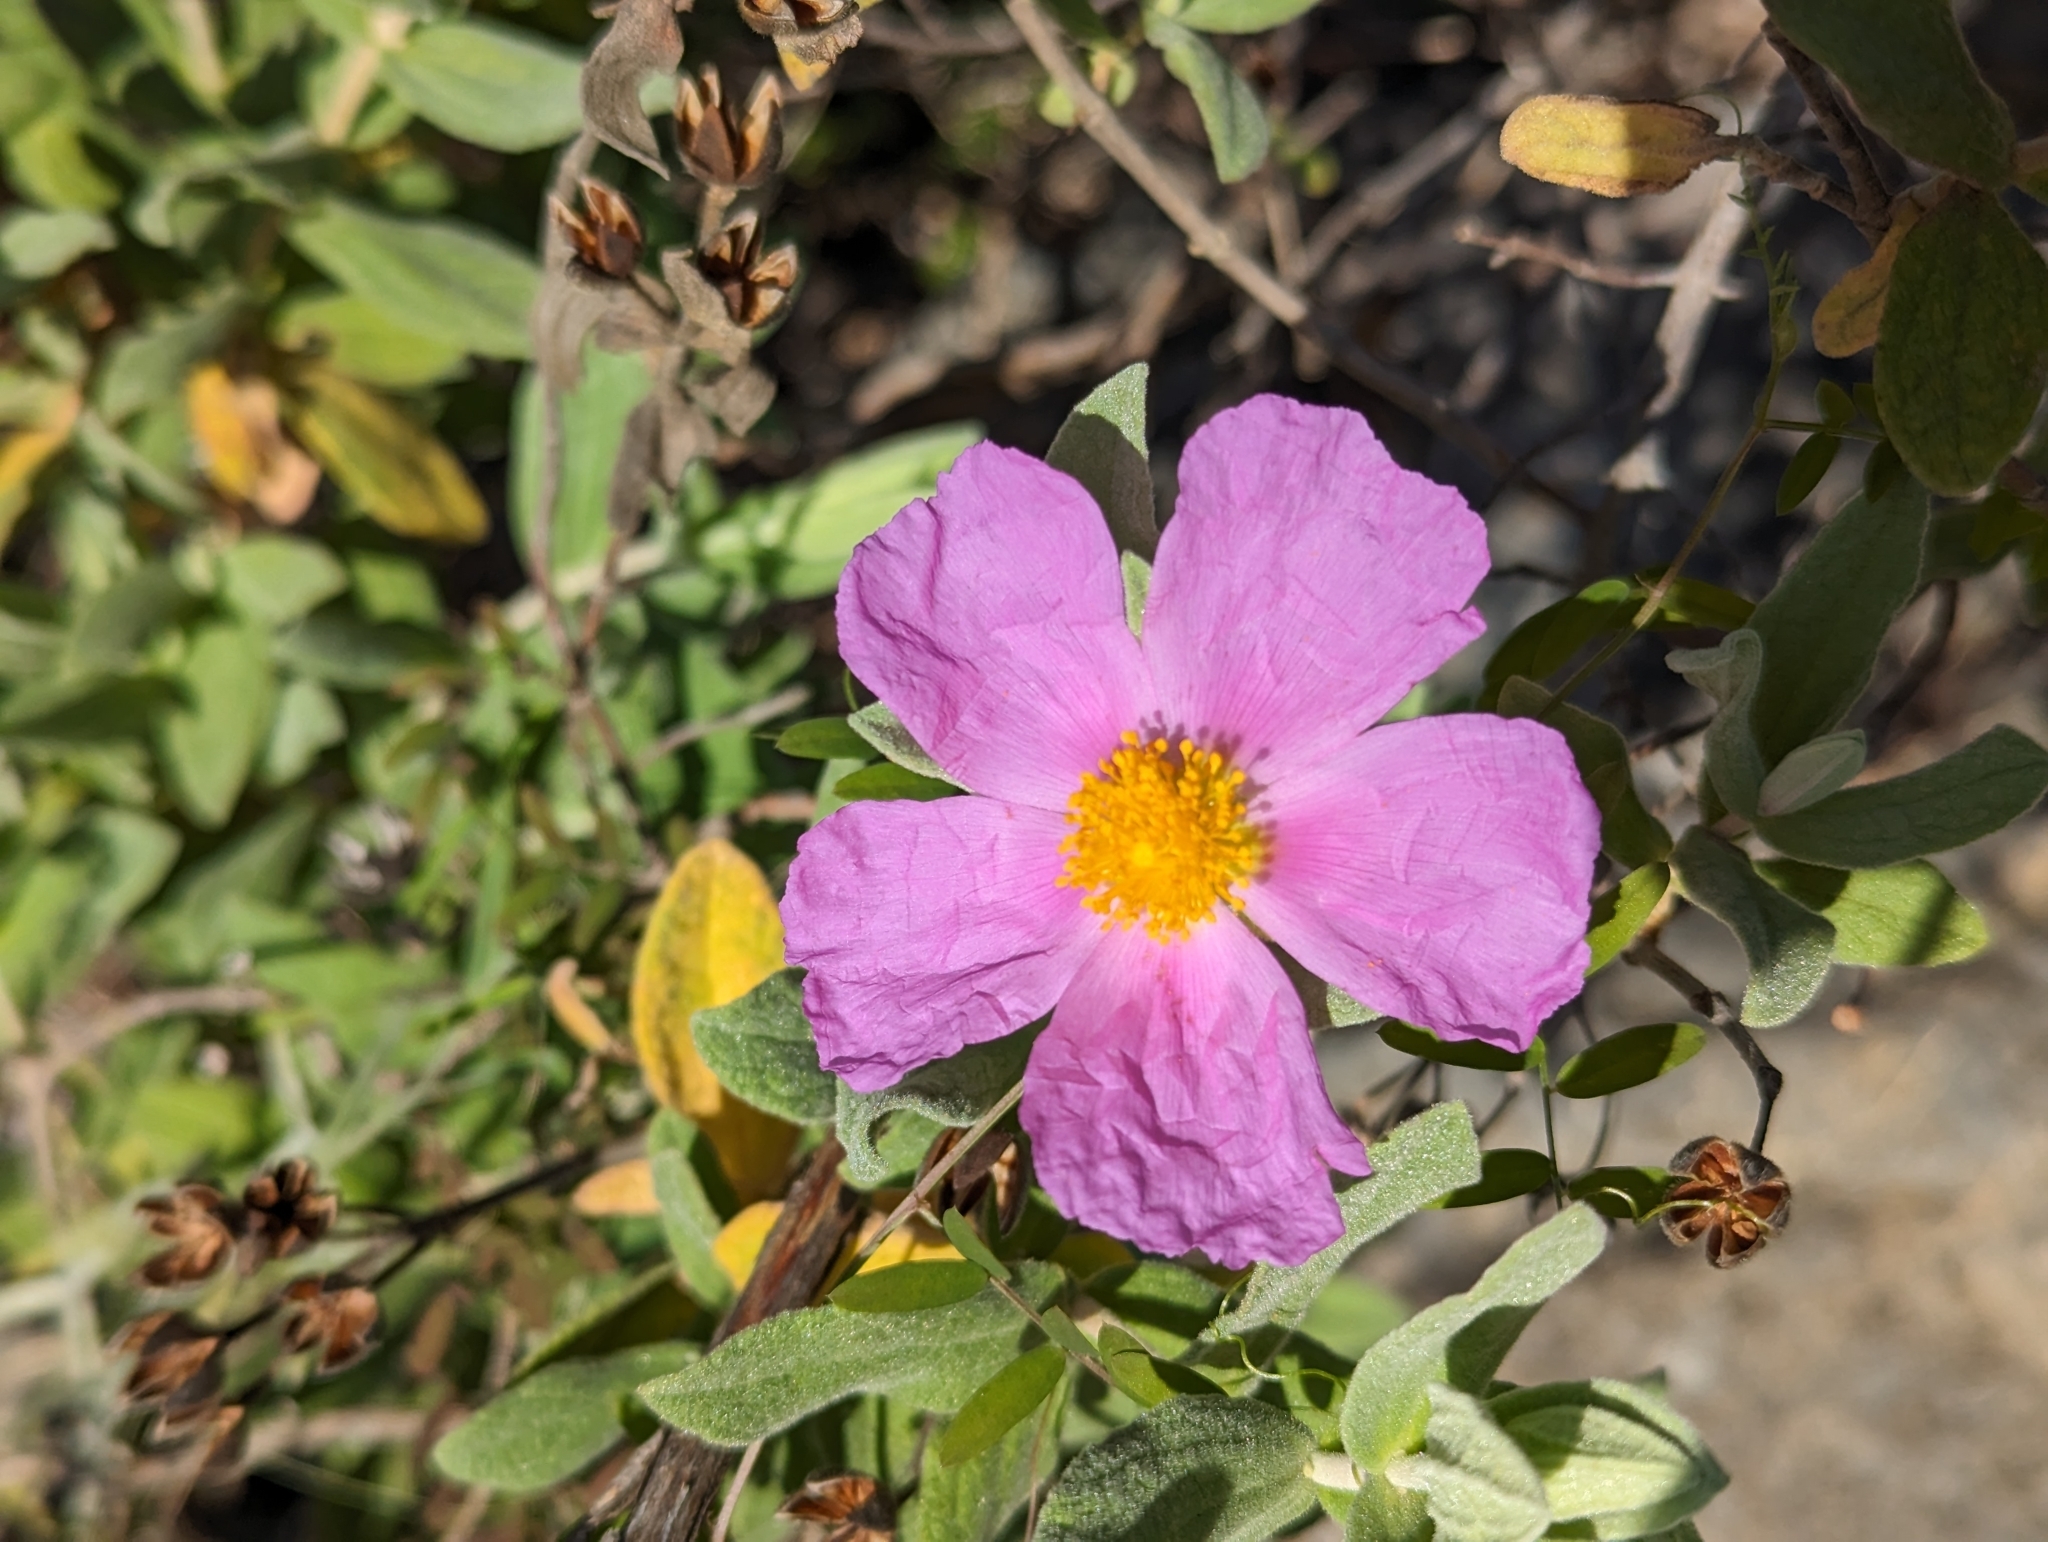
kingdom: Plantae
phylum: Tracheophyta
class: Magnoliopsida
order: Malvales
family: Cistaceae
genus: Cistus
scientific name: Cistus albidus
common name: White-leaf rock-rose
